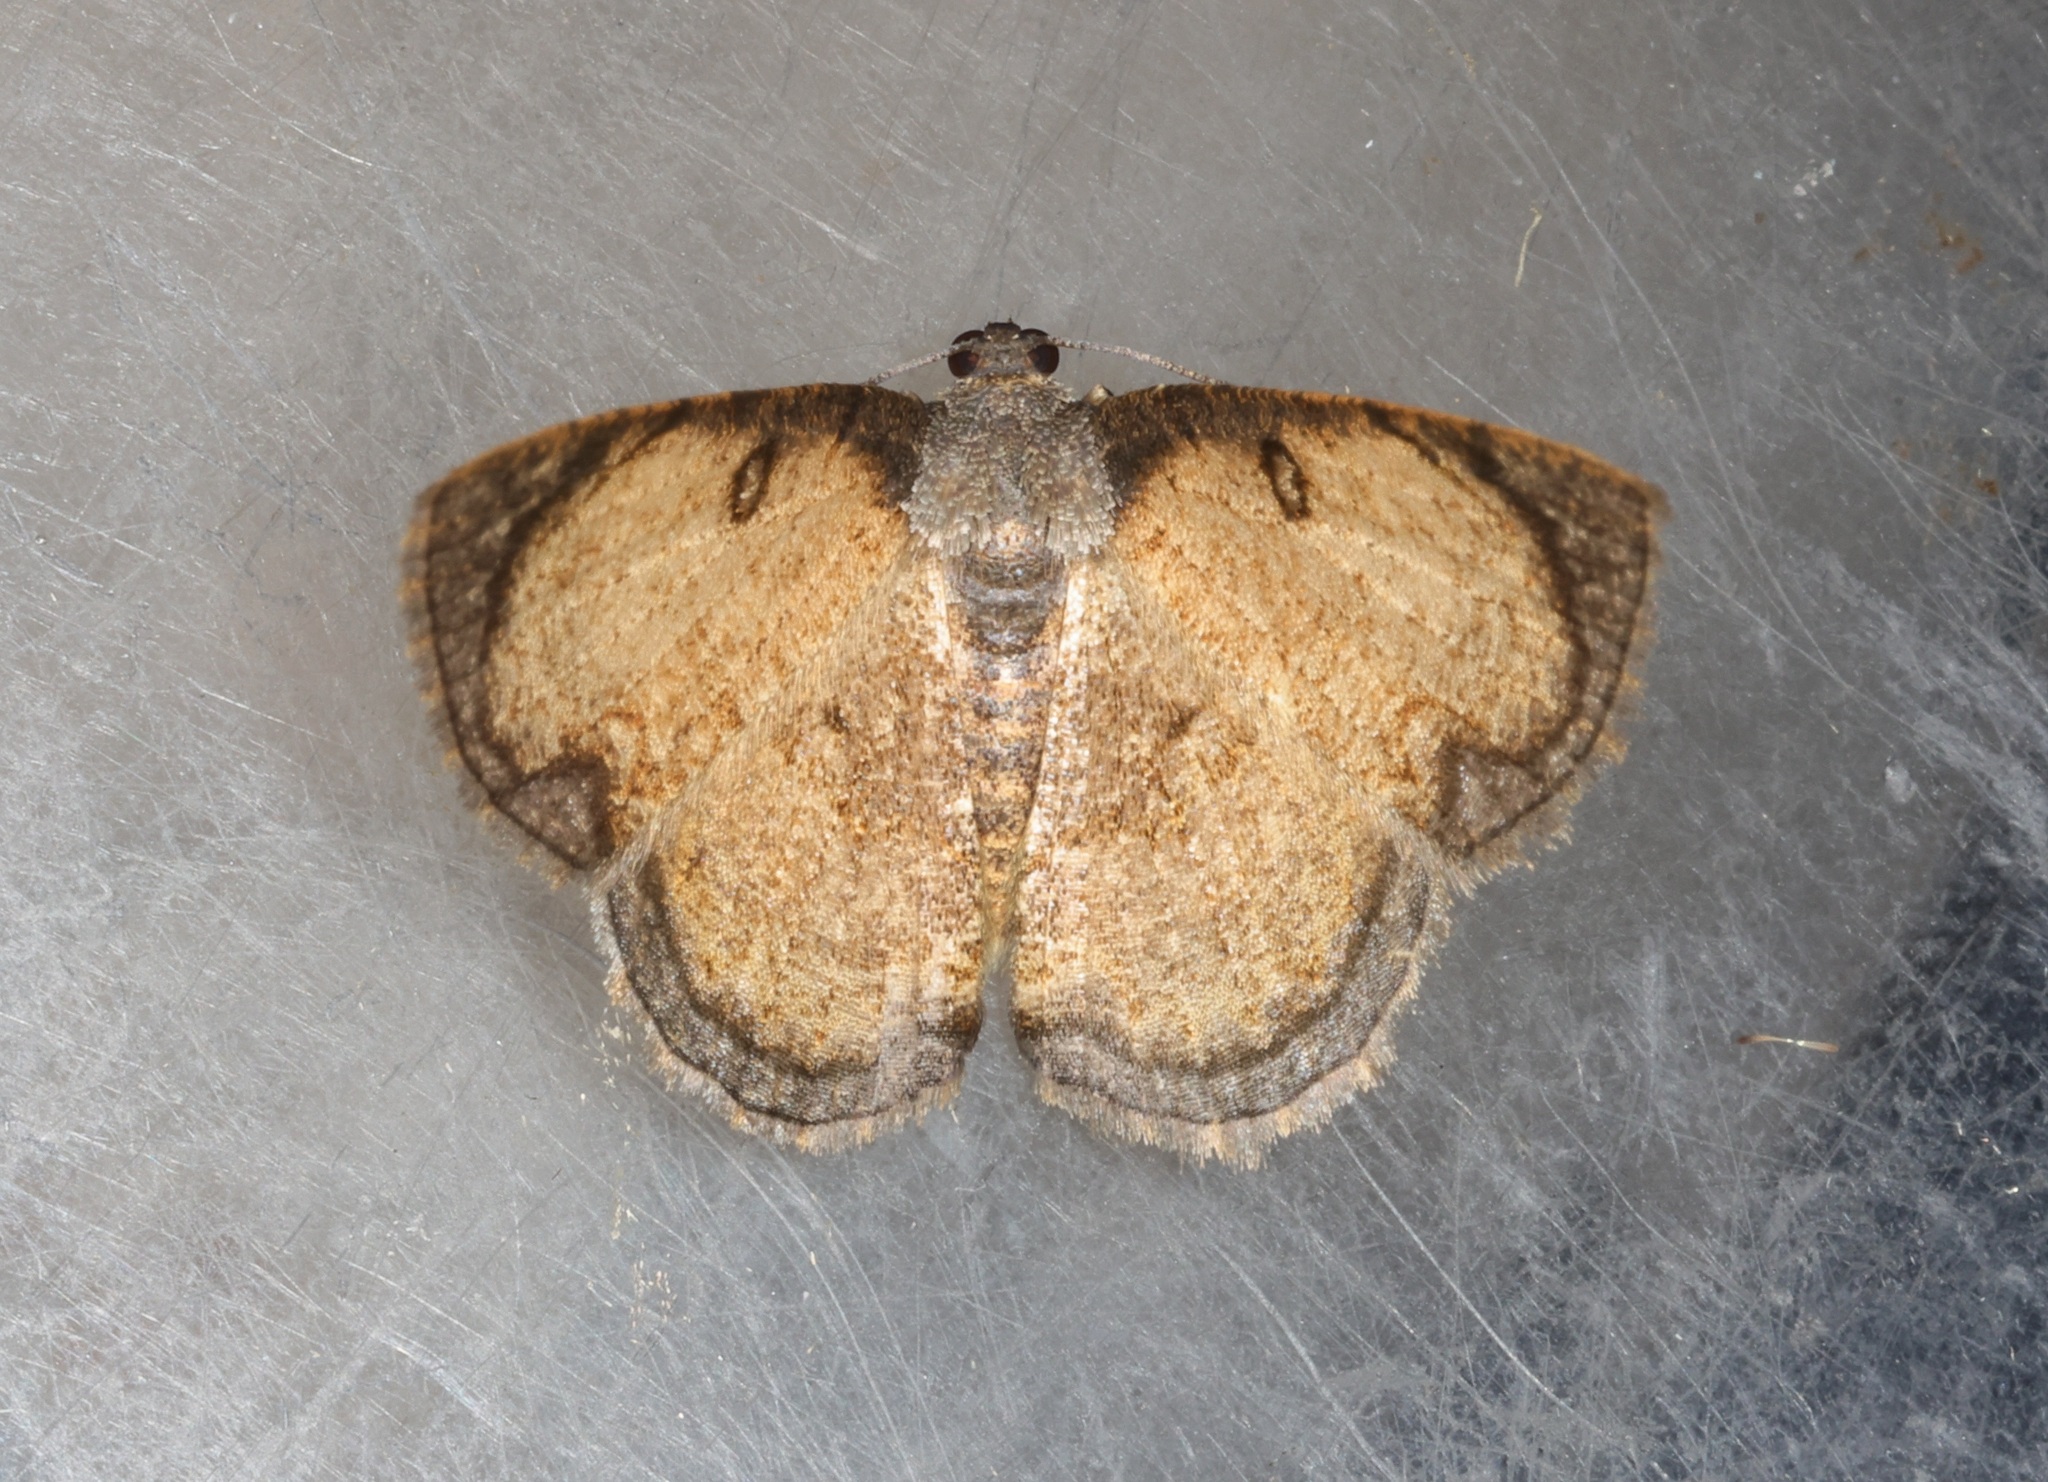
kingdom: Animalia
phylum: Arthropoda
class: Insecta
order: Lepidoptera
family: Geometridae
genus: Hydatocapnia
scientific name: Hydatocapnia gemina
